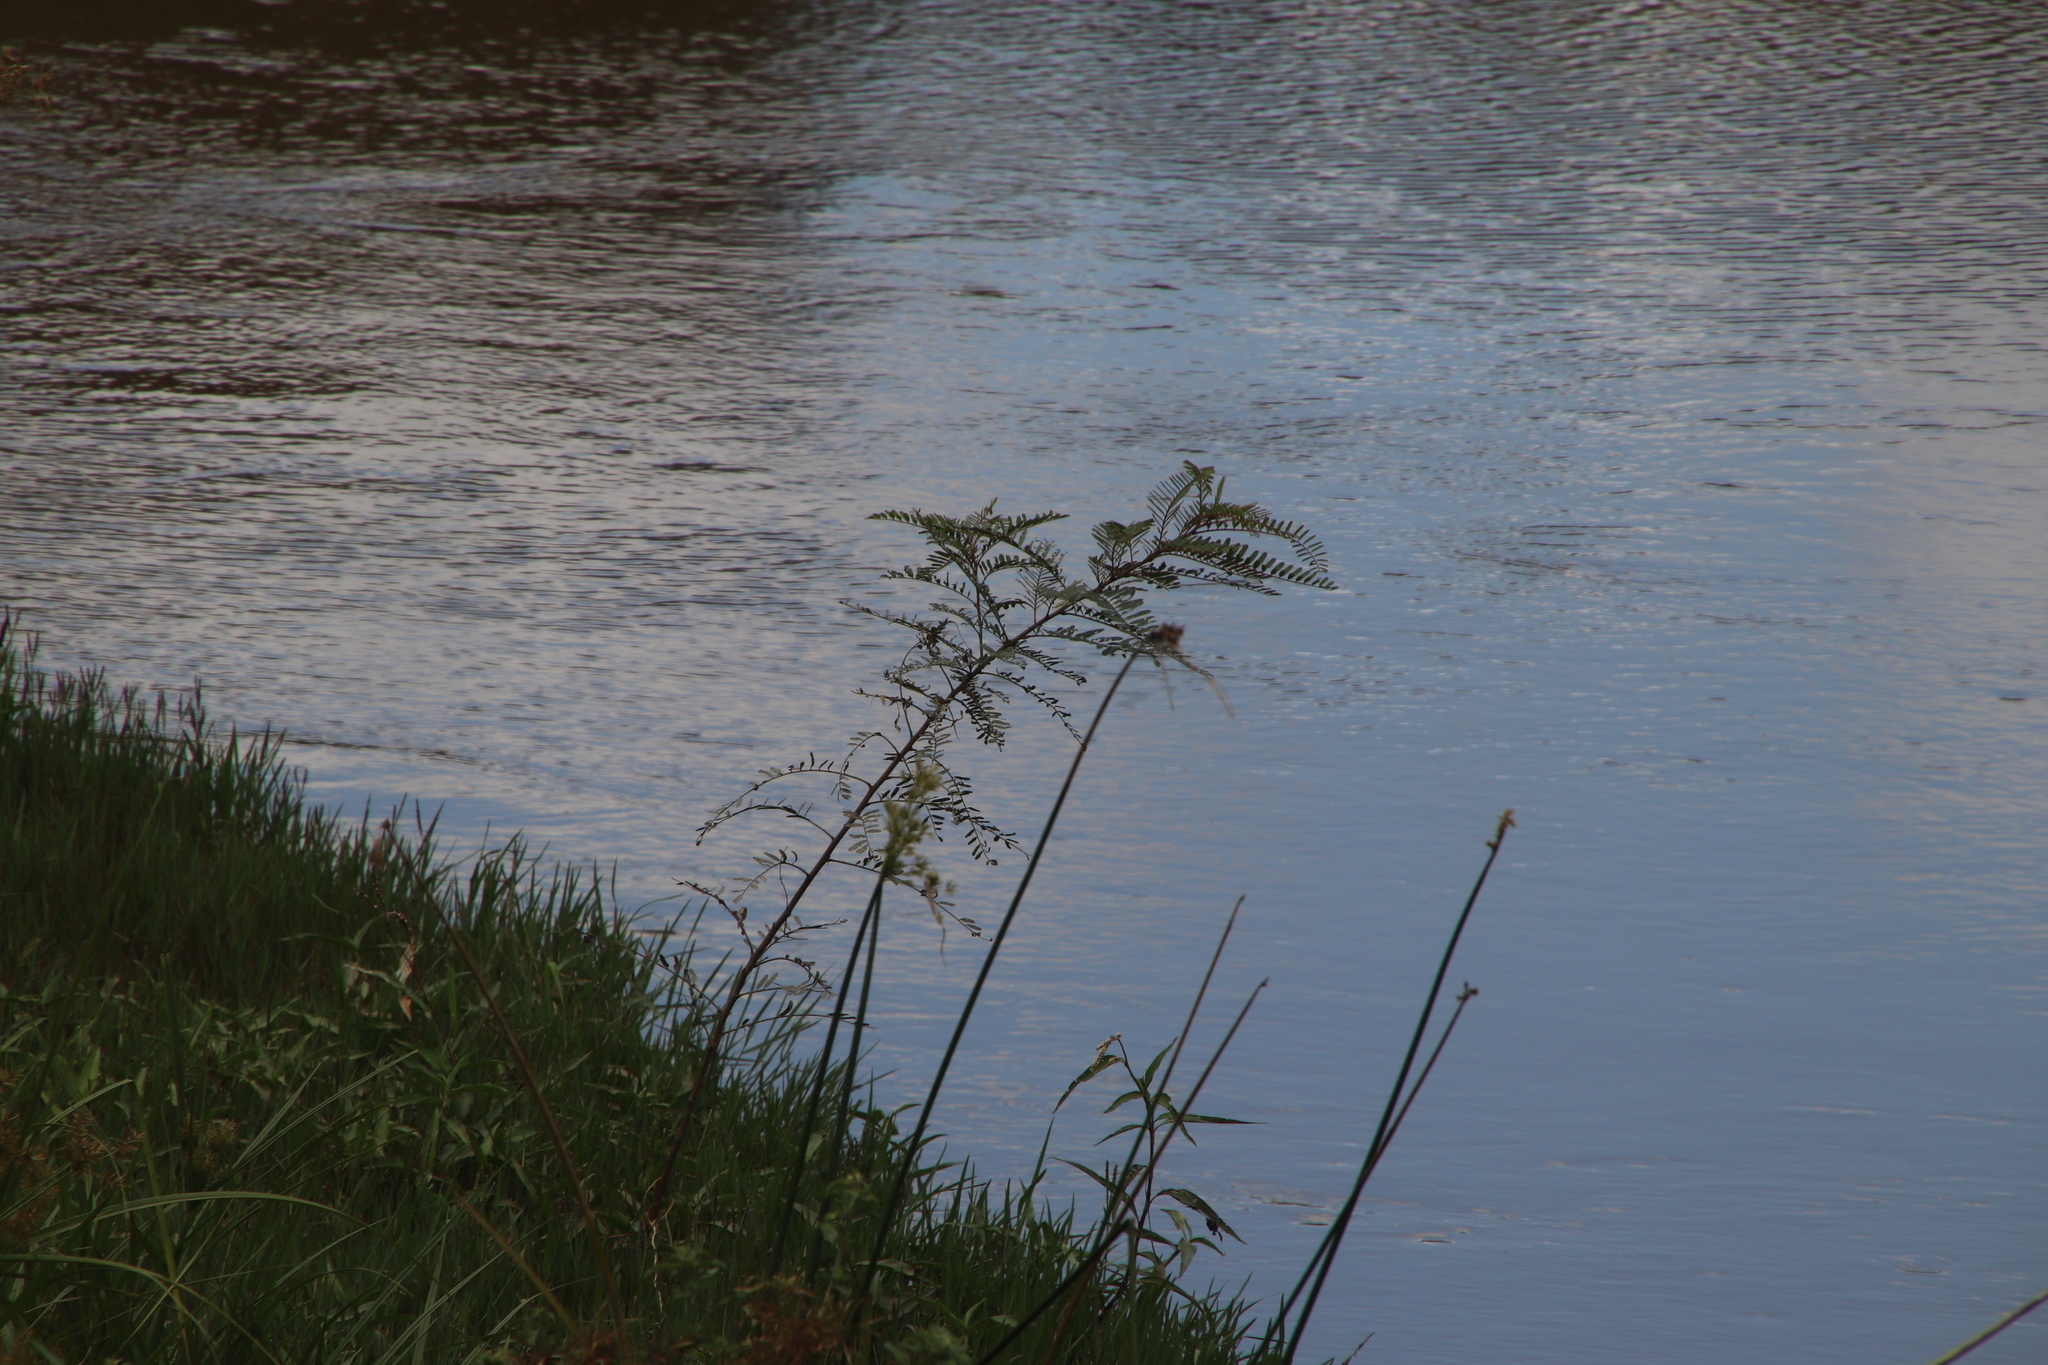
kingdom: Plantae
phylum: Tracheophyta
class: Magnoliopsida
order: Fabales
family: Fabaceae
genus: Sesbania
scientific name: Sesbania punicea
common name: Rattlebox
